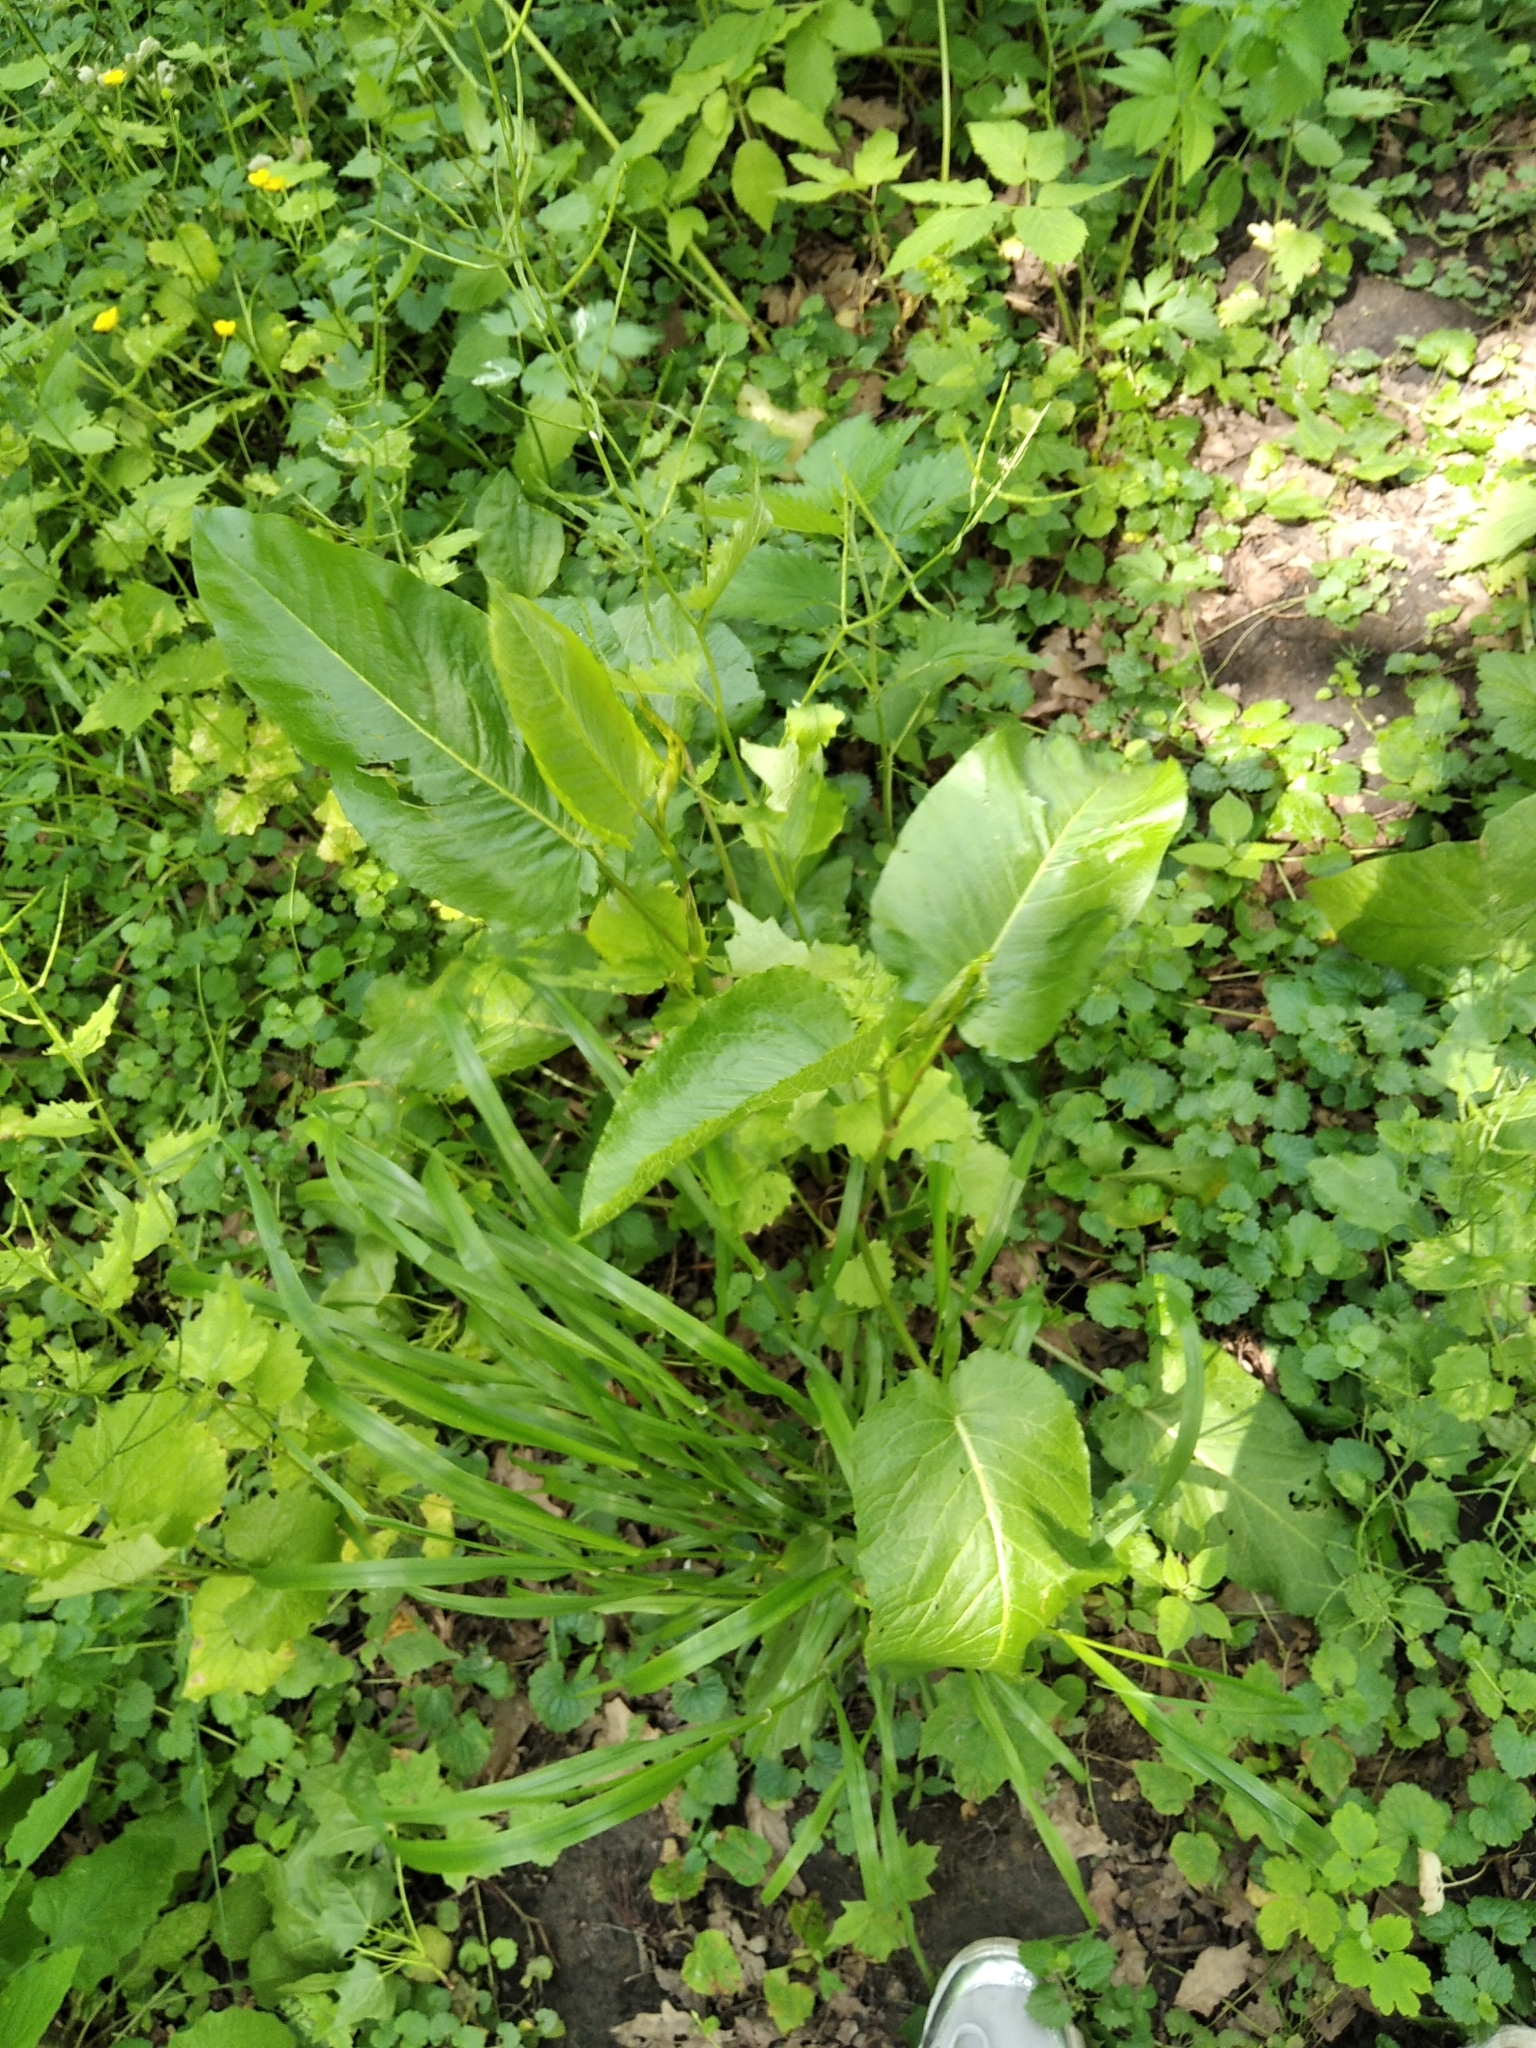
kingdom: Plantae
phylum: Tracheophyta
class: Magnoliopsida
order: Caryophyllales
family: Polygonaceae
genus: Rumex
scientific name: Rumex obtusifolius
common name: Bitter dock
